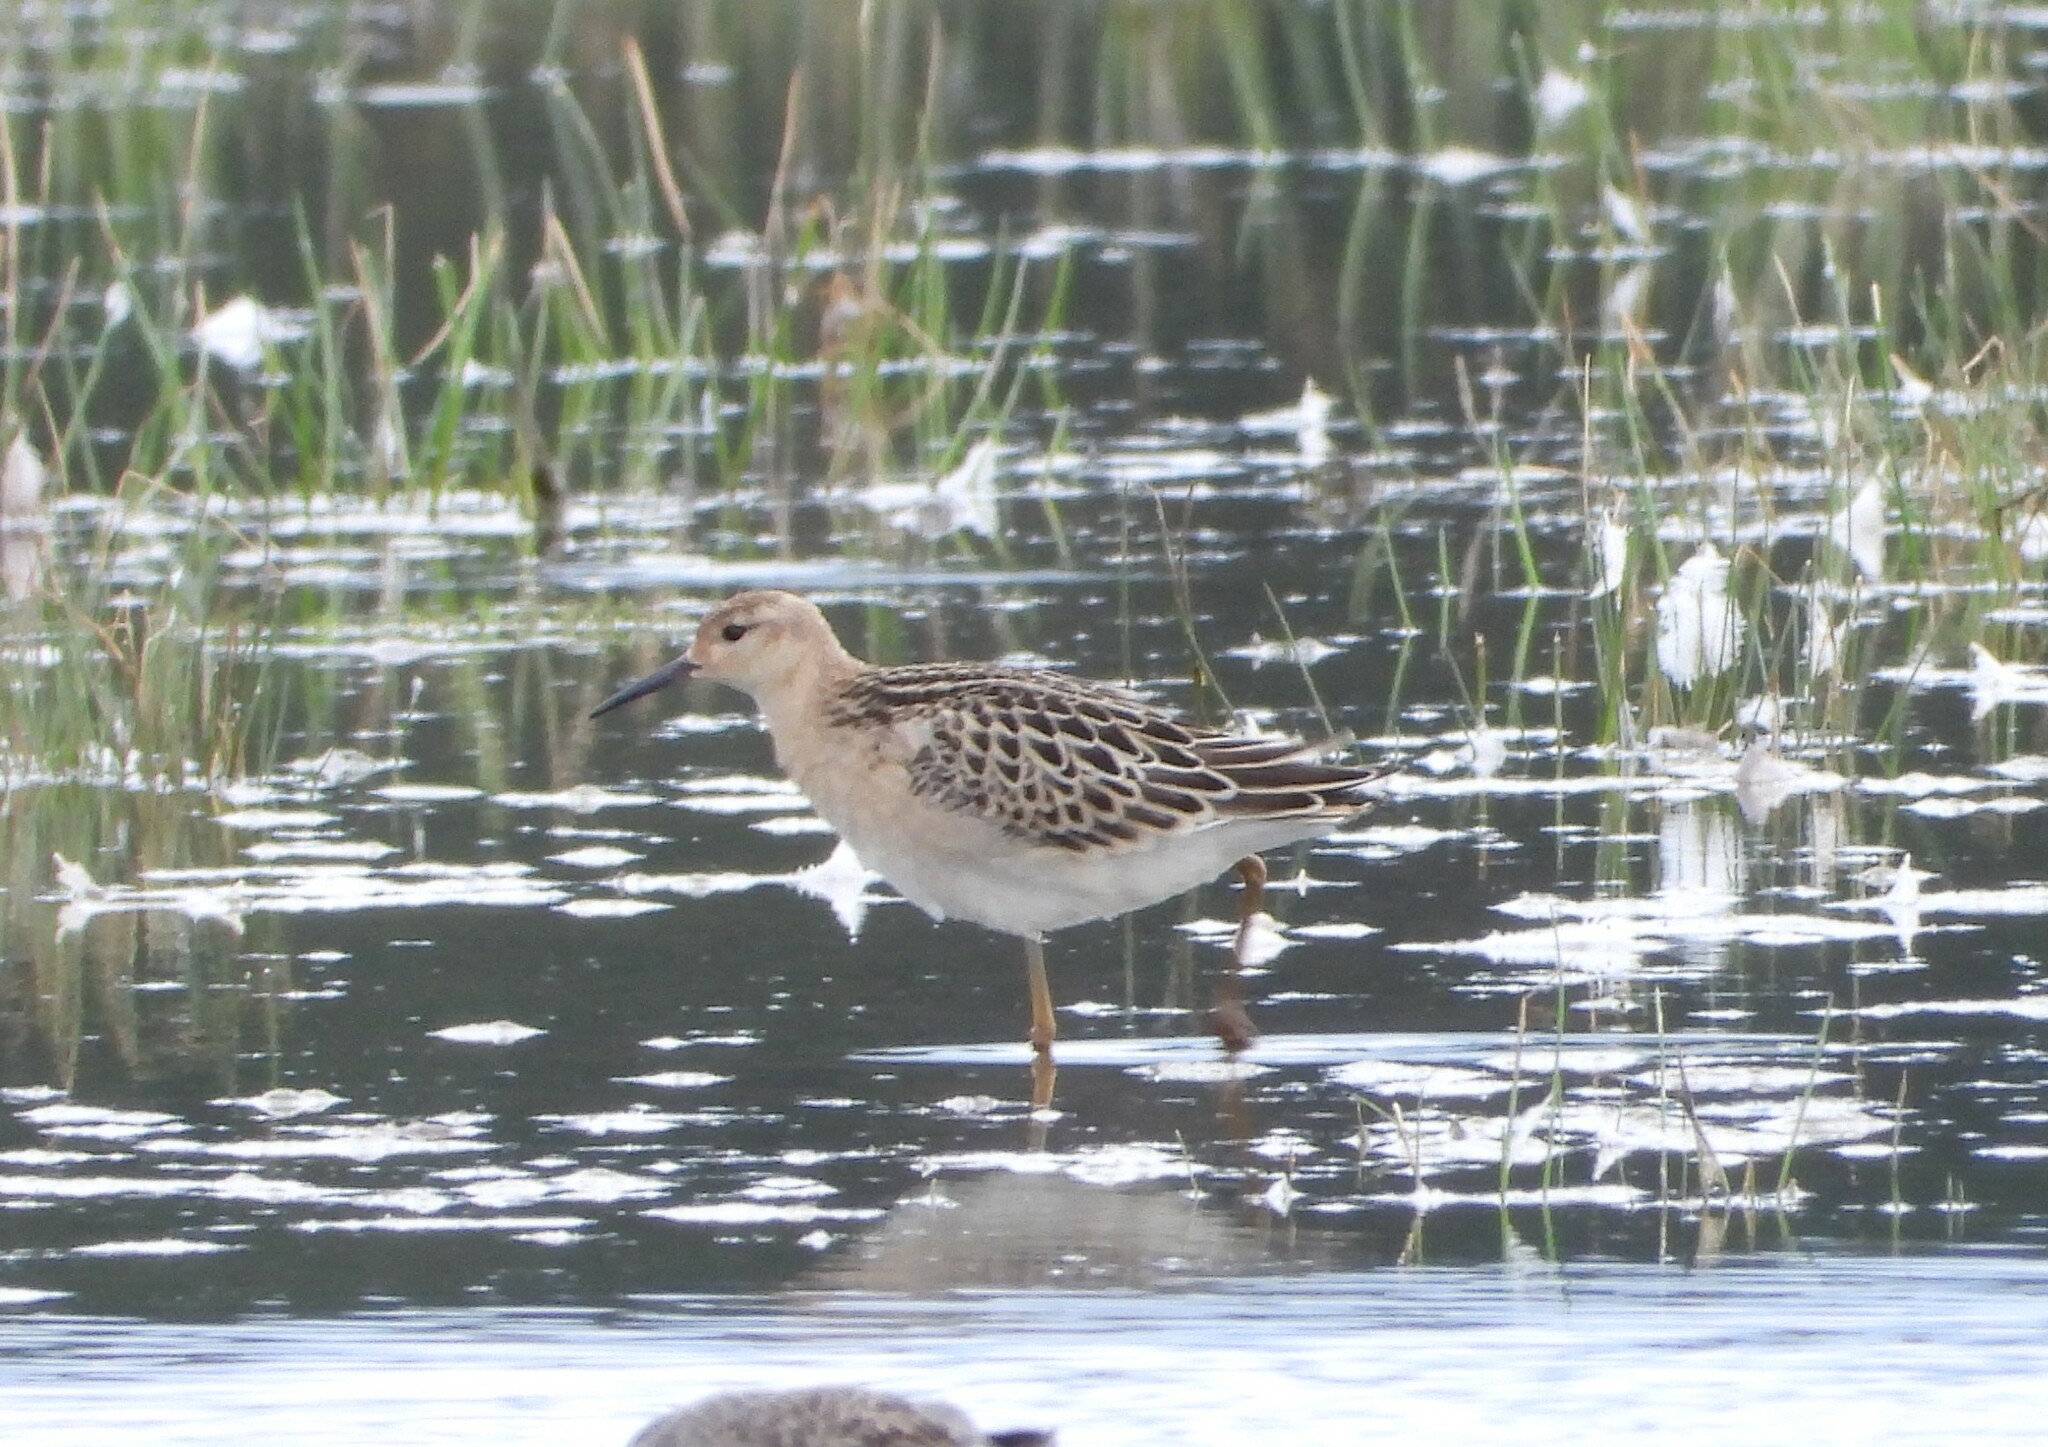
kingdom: Animalia
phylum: Chordata
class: Aves
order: Charadriiformes
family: Scolopacidae
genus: Calidris
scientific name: Calidris pugnax
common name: Ruff
